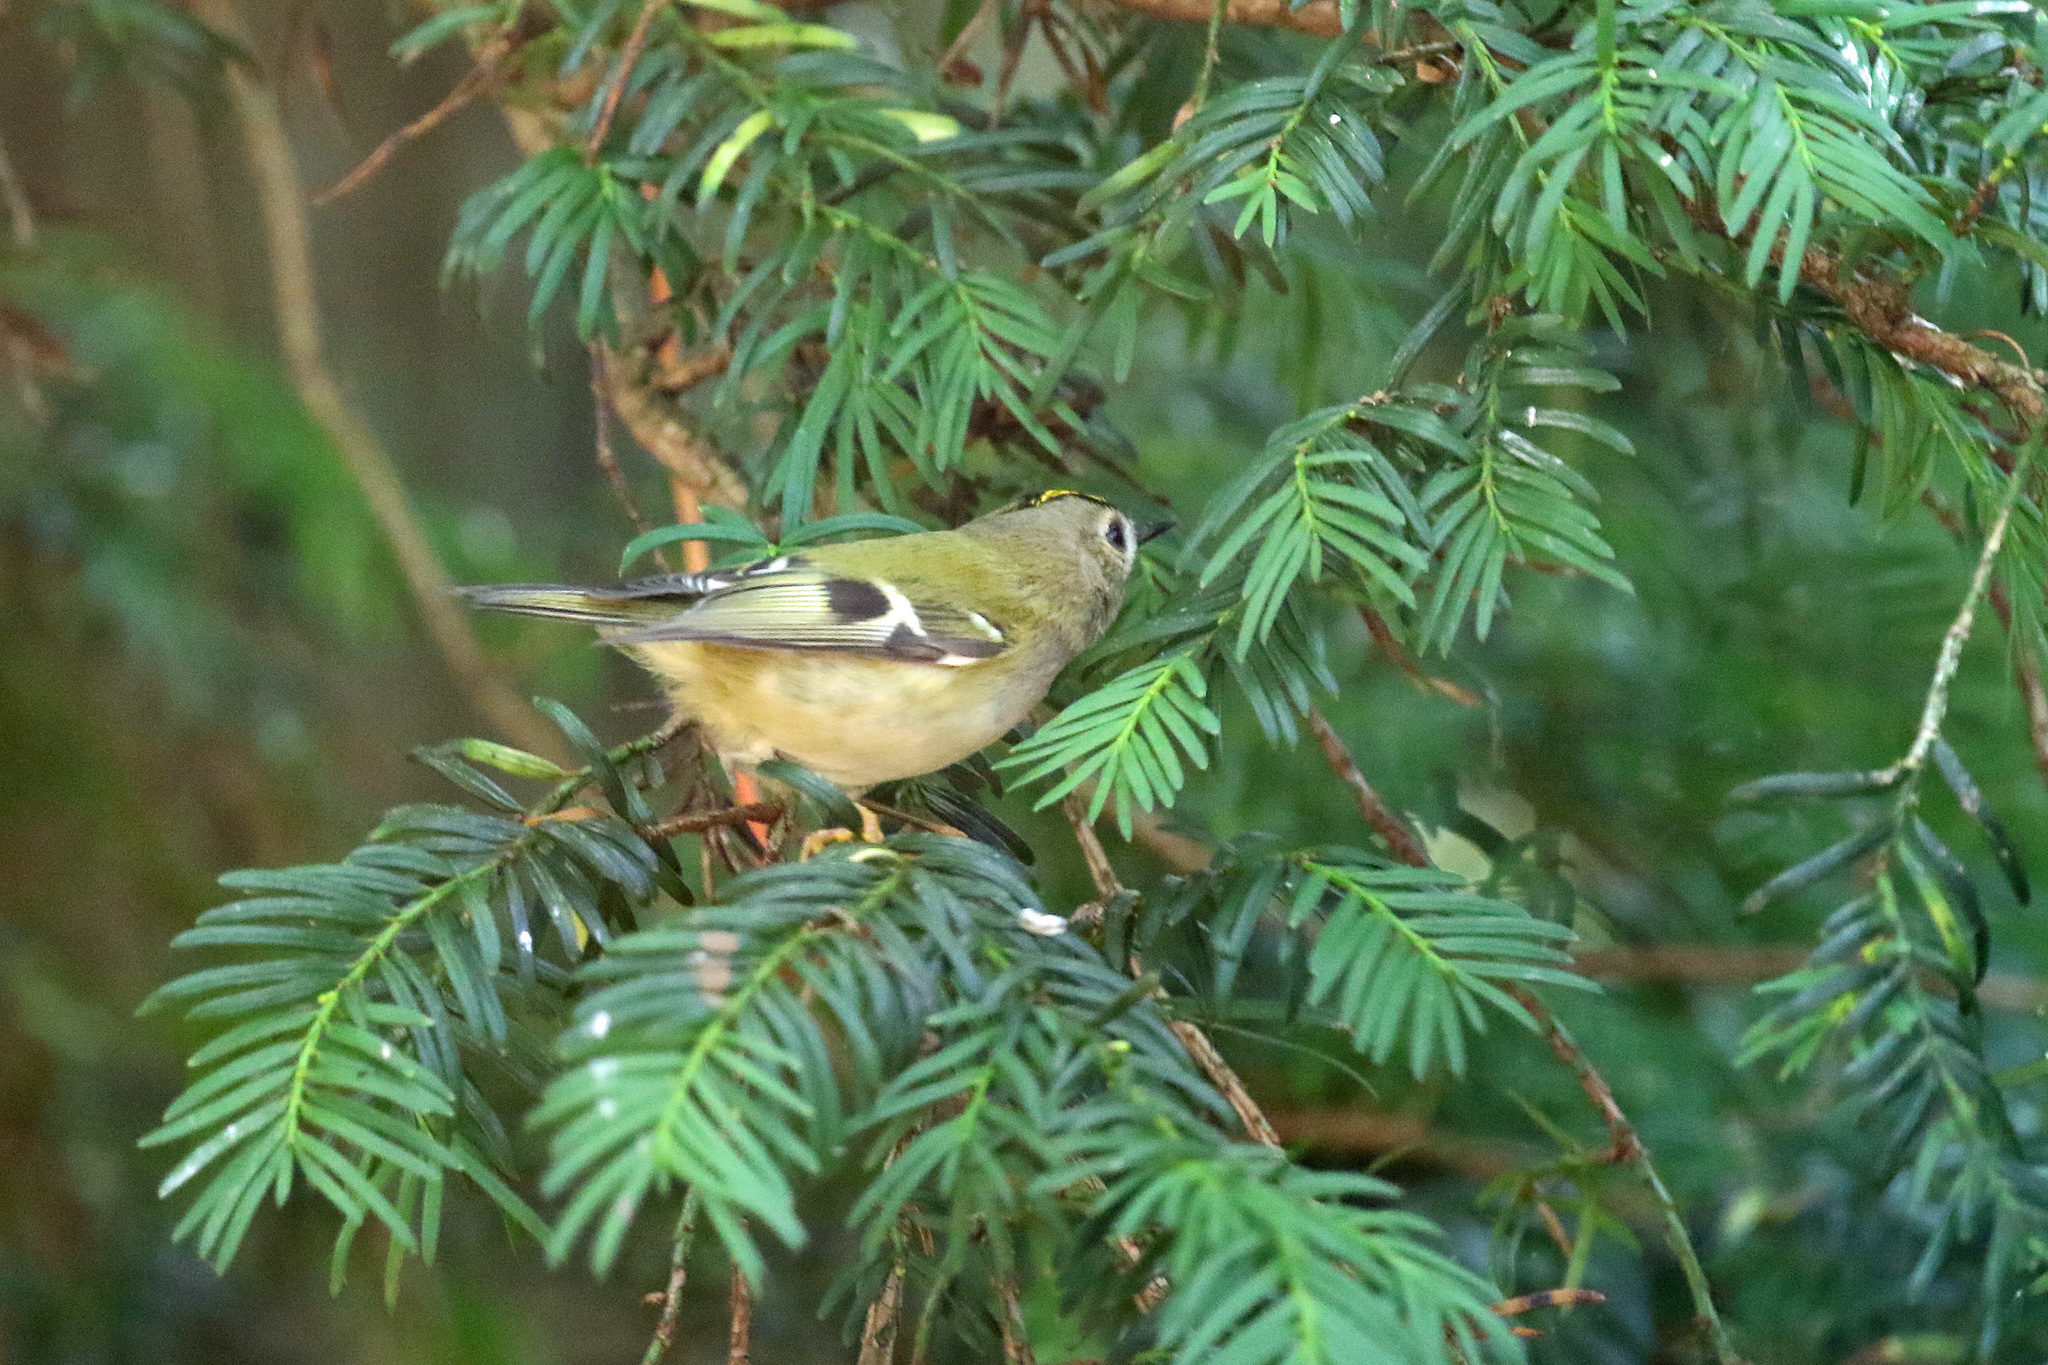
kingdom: Animalia
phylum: Chordata
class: Aves
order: Passeriformes
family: Regulidae
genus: Regulus
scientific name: Regulus regulus
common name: Goldcrest
